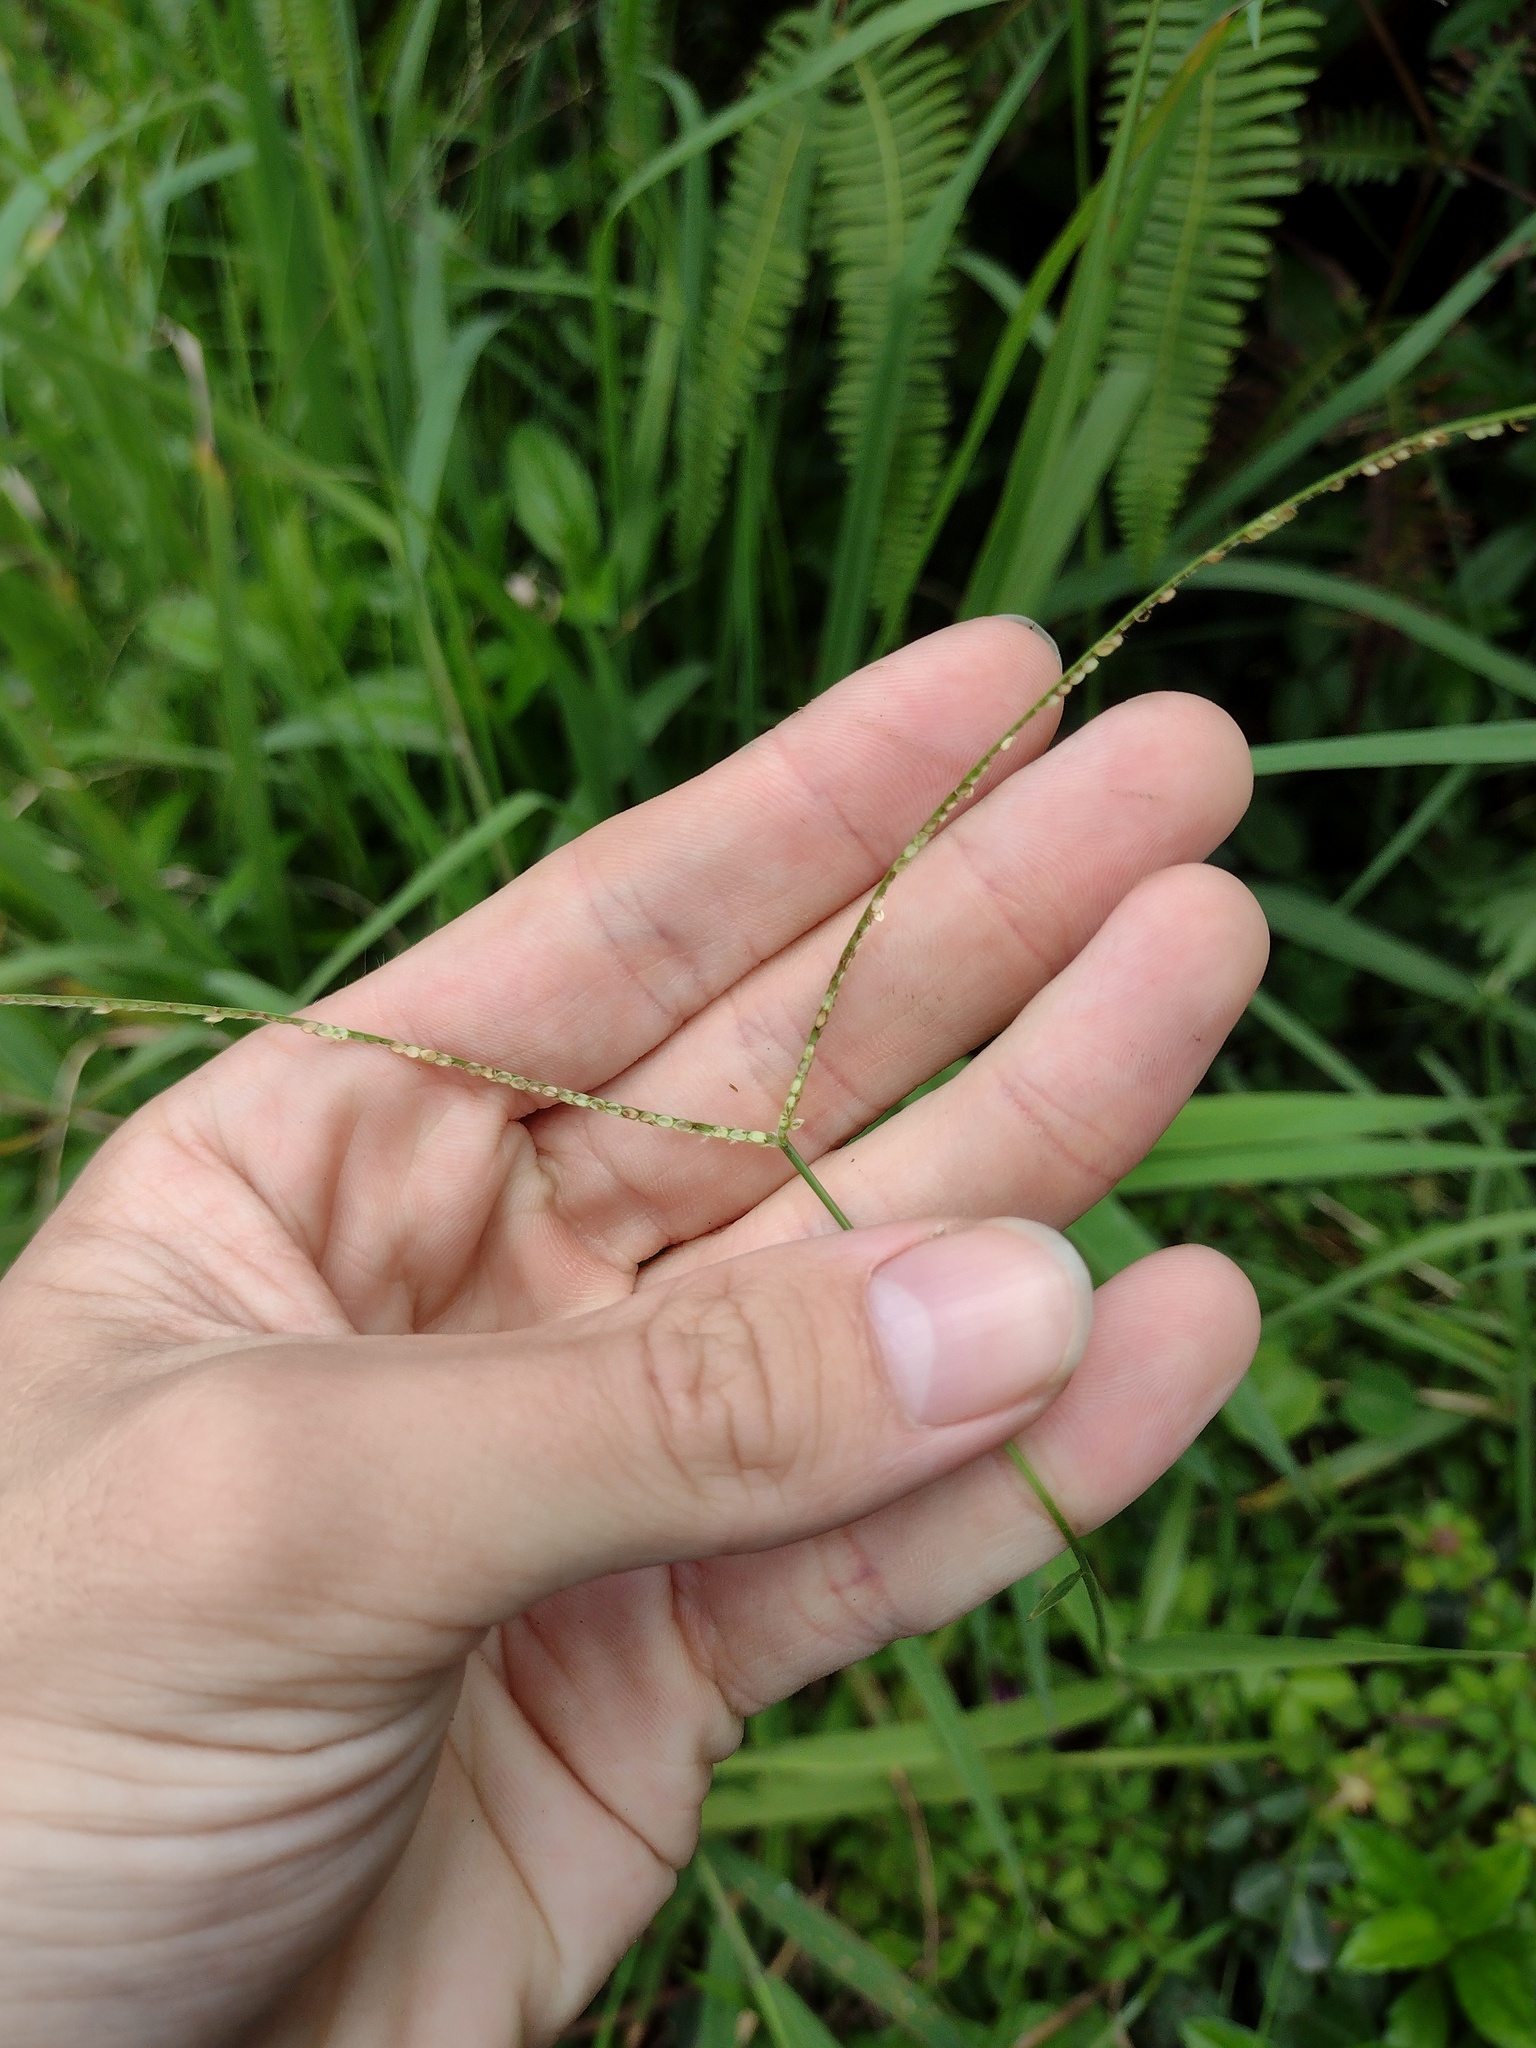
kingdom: Plantae
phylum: Tracheophyta
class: Liliopsida
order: Poales
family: Poaceae
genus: Paspalum
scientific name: Paspalum conjugatum
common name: Hilograss
